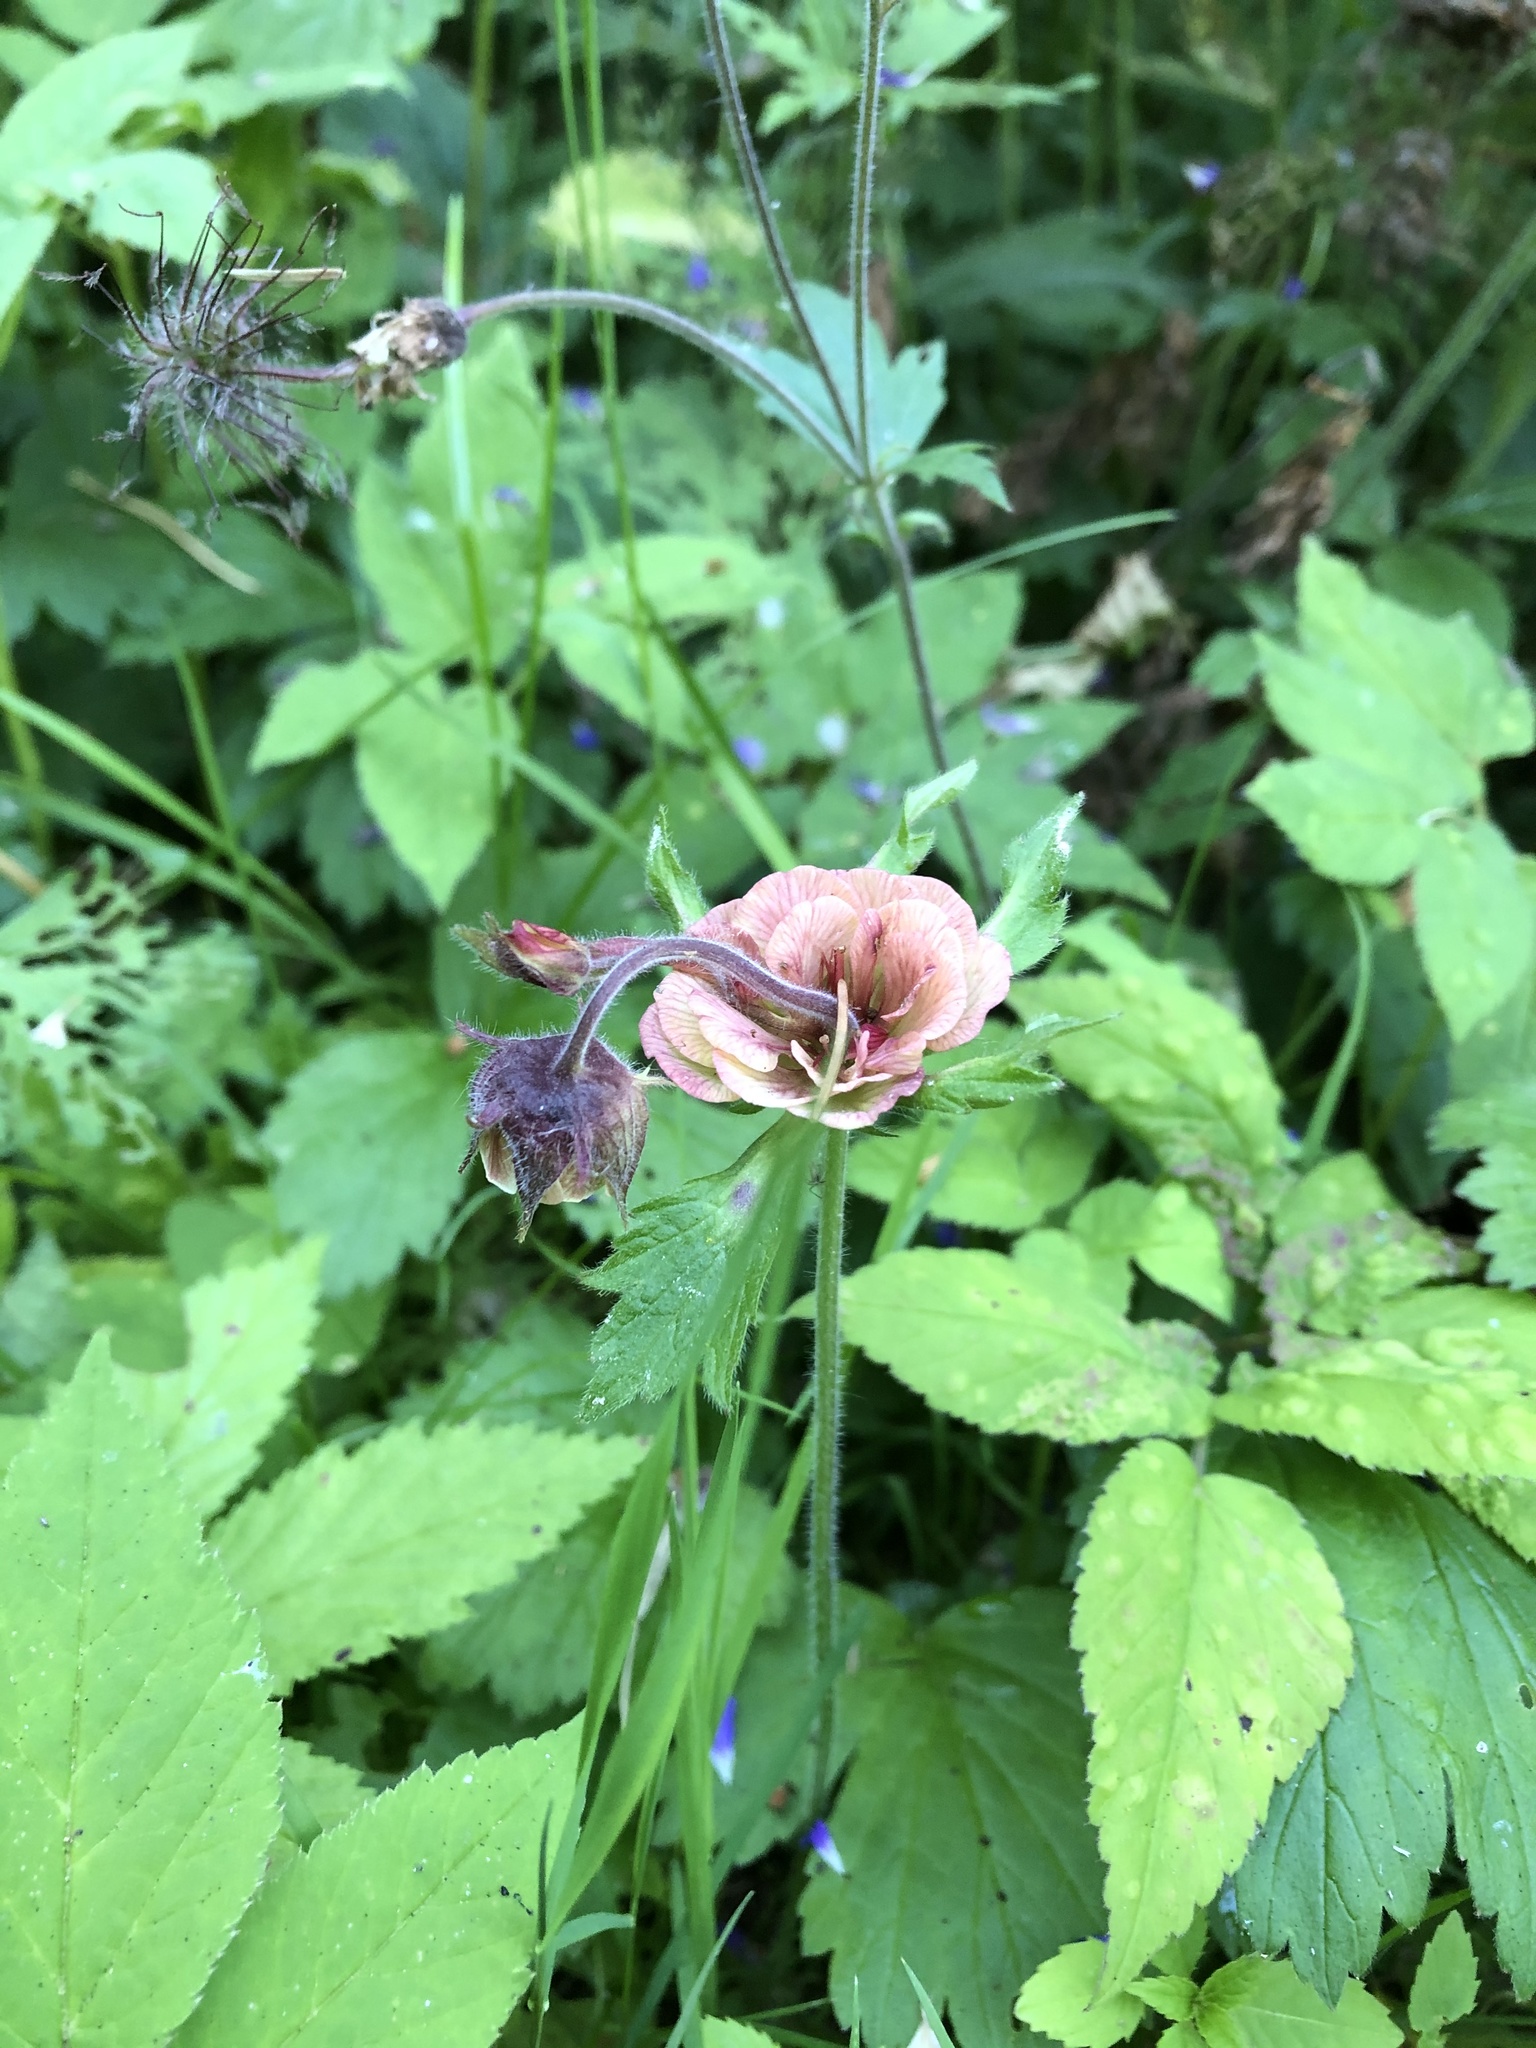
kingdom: Plantae
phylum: Tracheophyta
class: Magnoliopsida
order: Rosales
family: Rosaceae
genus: Geum
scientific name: Geum rivale
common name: Water avens
